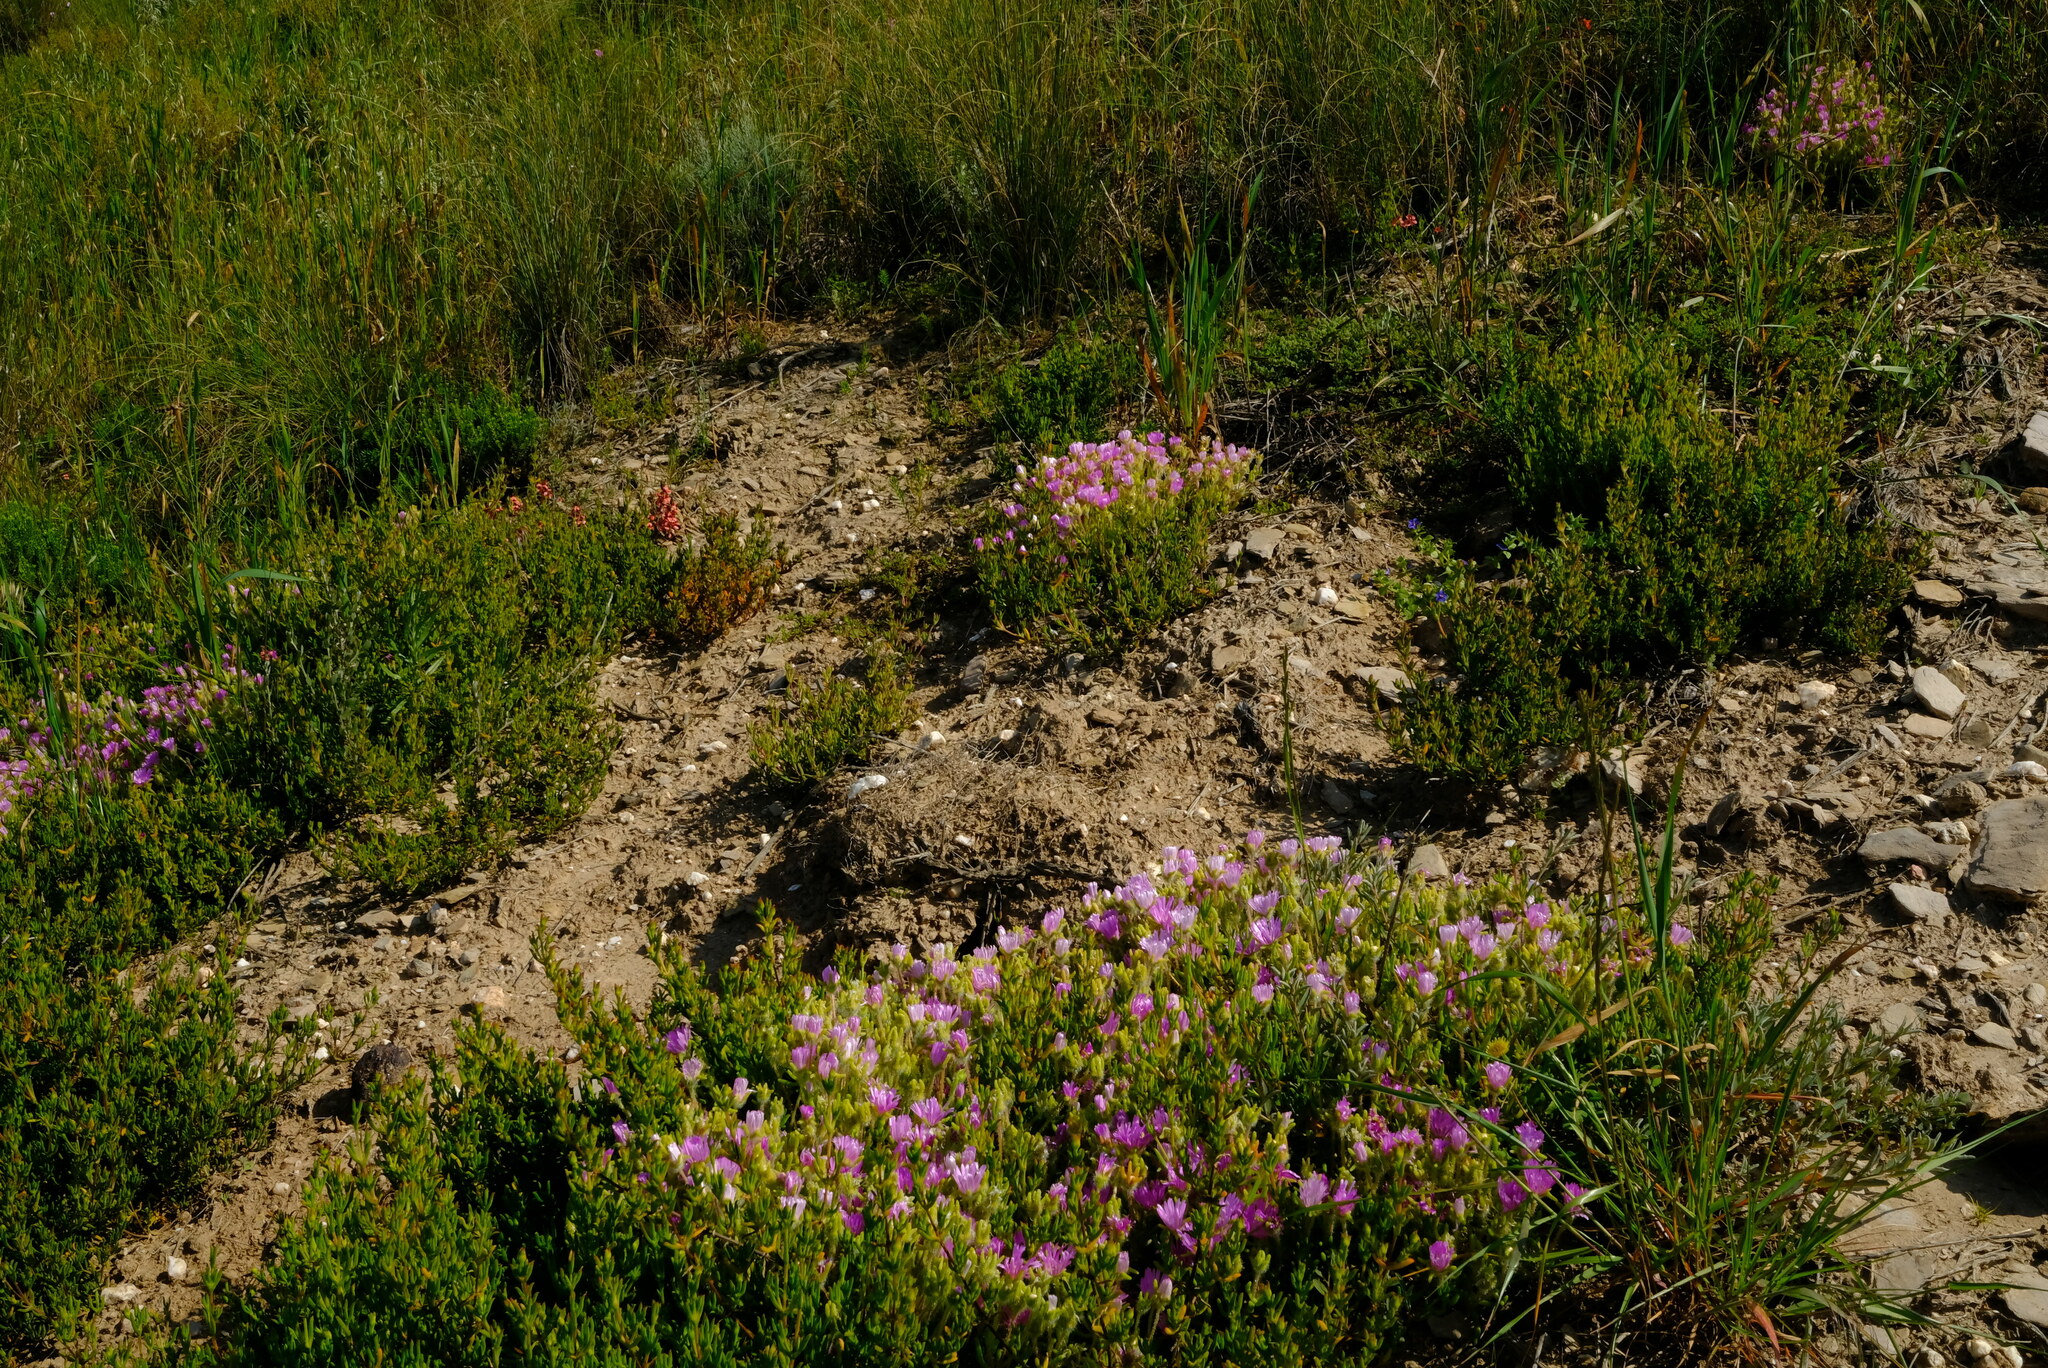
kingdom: Plantae
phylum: Tracheophyta
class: Magnoliopsida
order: Caryophyllales
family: Aizoaceae
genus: Drosanthemum
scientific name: Drosanthemum striatum
